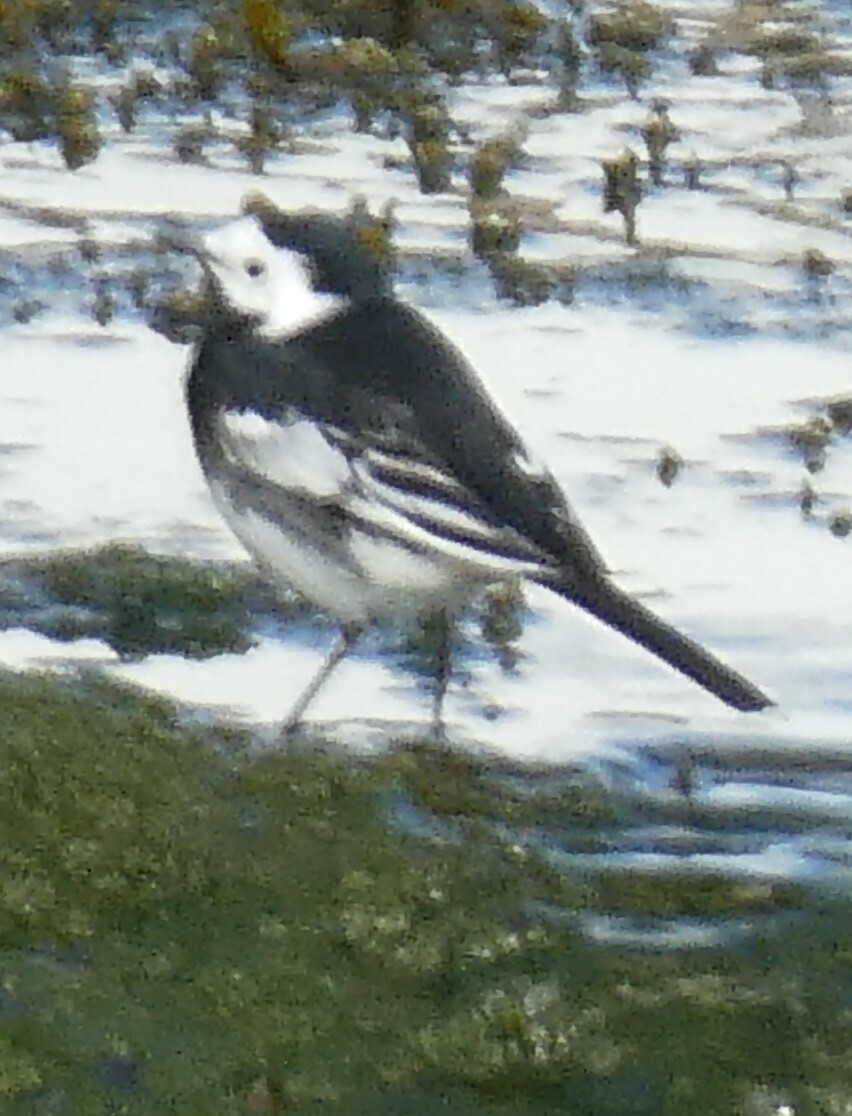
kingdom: Animalia
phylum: Chordata
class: Aves
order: Passeriformes
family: Motacillidae
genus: Motacilla
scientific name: Motacilla alba
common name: White wagtail
